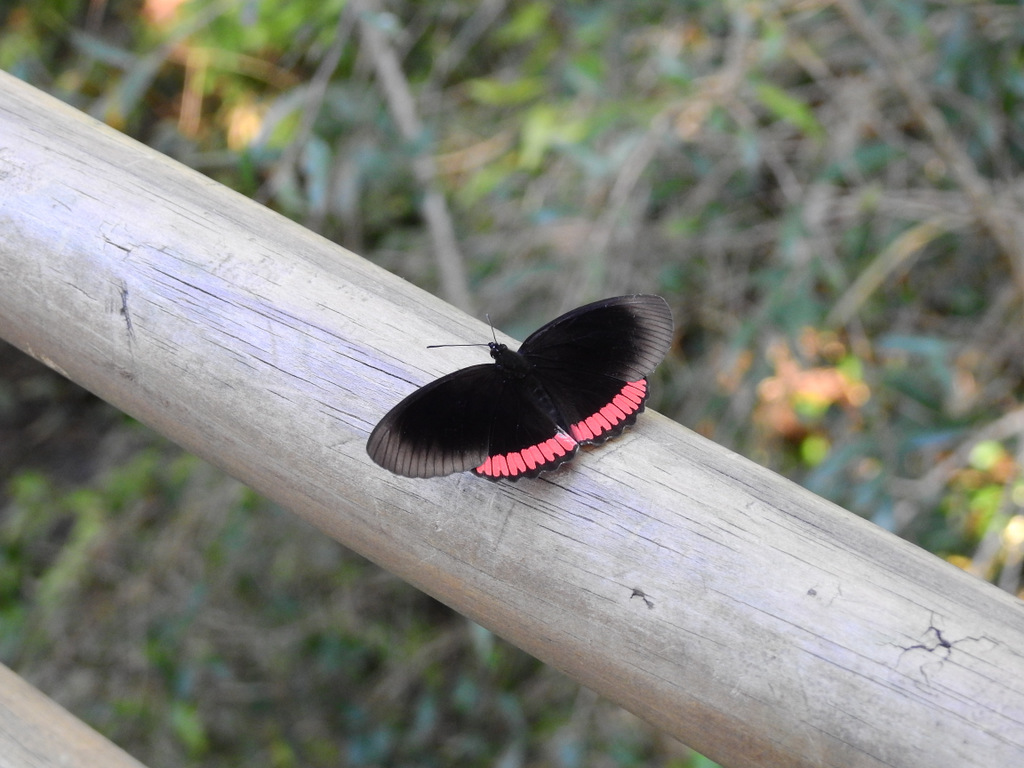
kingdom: Animalia
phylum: Arthropoda
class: Insecta
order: Lepidoptera
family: Sesiidae
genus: Sesia
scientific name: Sesia Biblis hyperia
